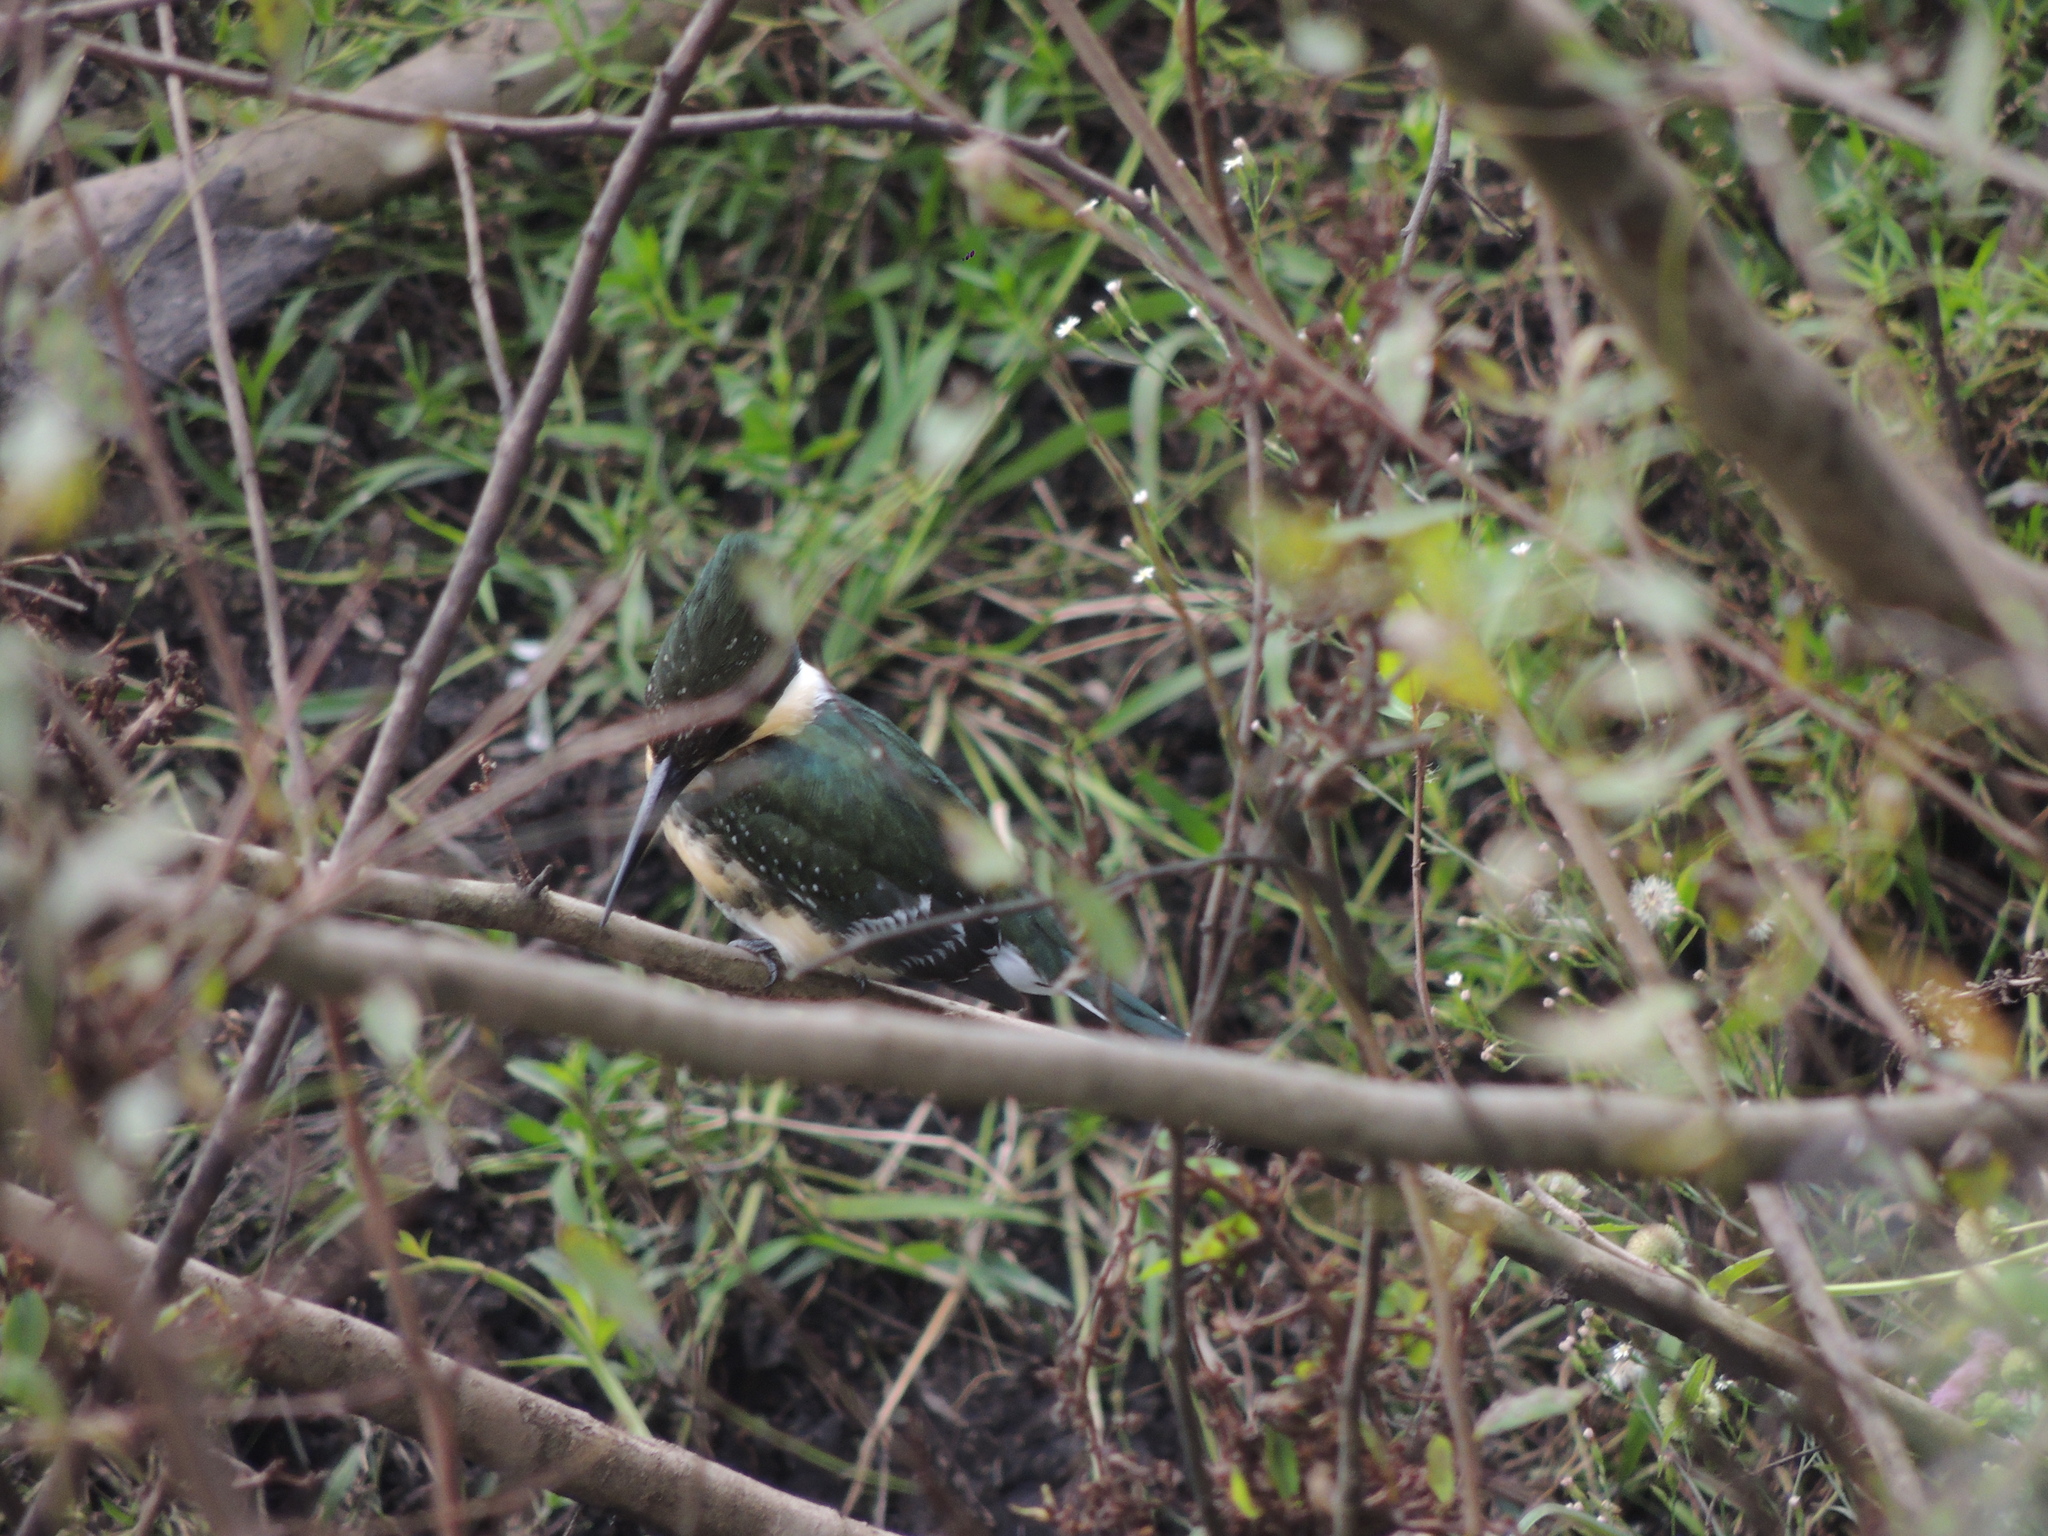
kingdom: Animalia
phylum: Chordata
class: Aves
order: Coraciiformes
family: Alcedinidae
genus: Chloroceryle
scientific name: Chloroceryle americana
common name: Green kingfisher
